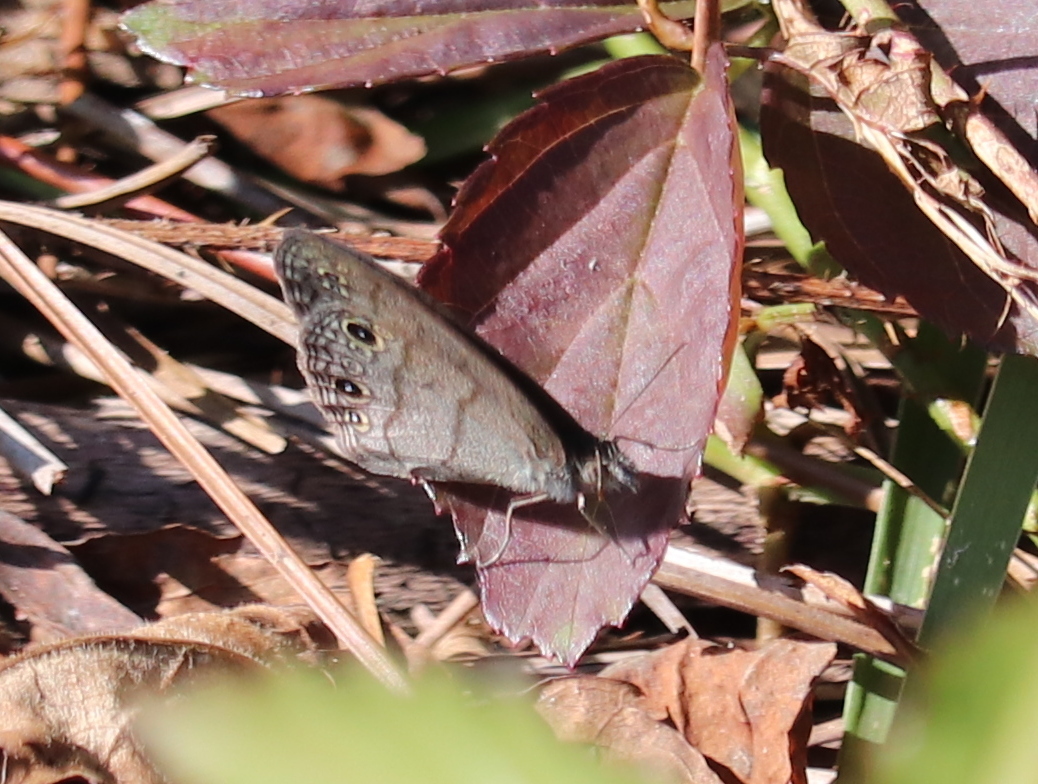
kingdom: Animalia
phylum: Arthropoda
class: Insecta
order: Lepidoptera
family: Nymphalidae
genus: Hermeuptychia
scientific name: Hermeuptychia hermes
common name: Hermes satyr
